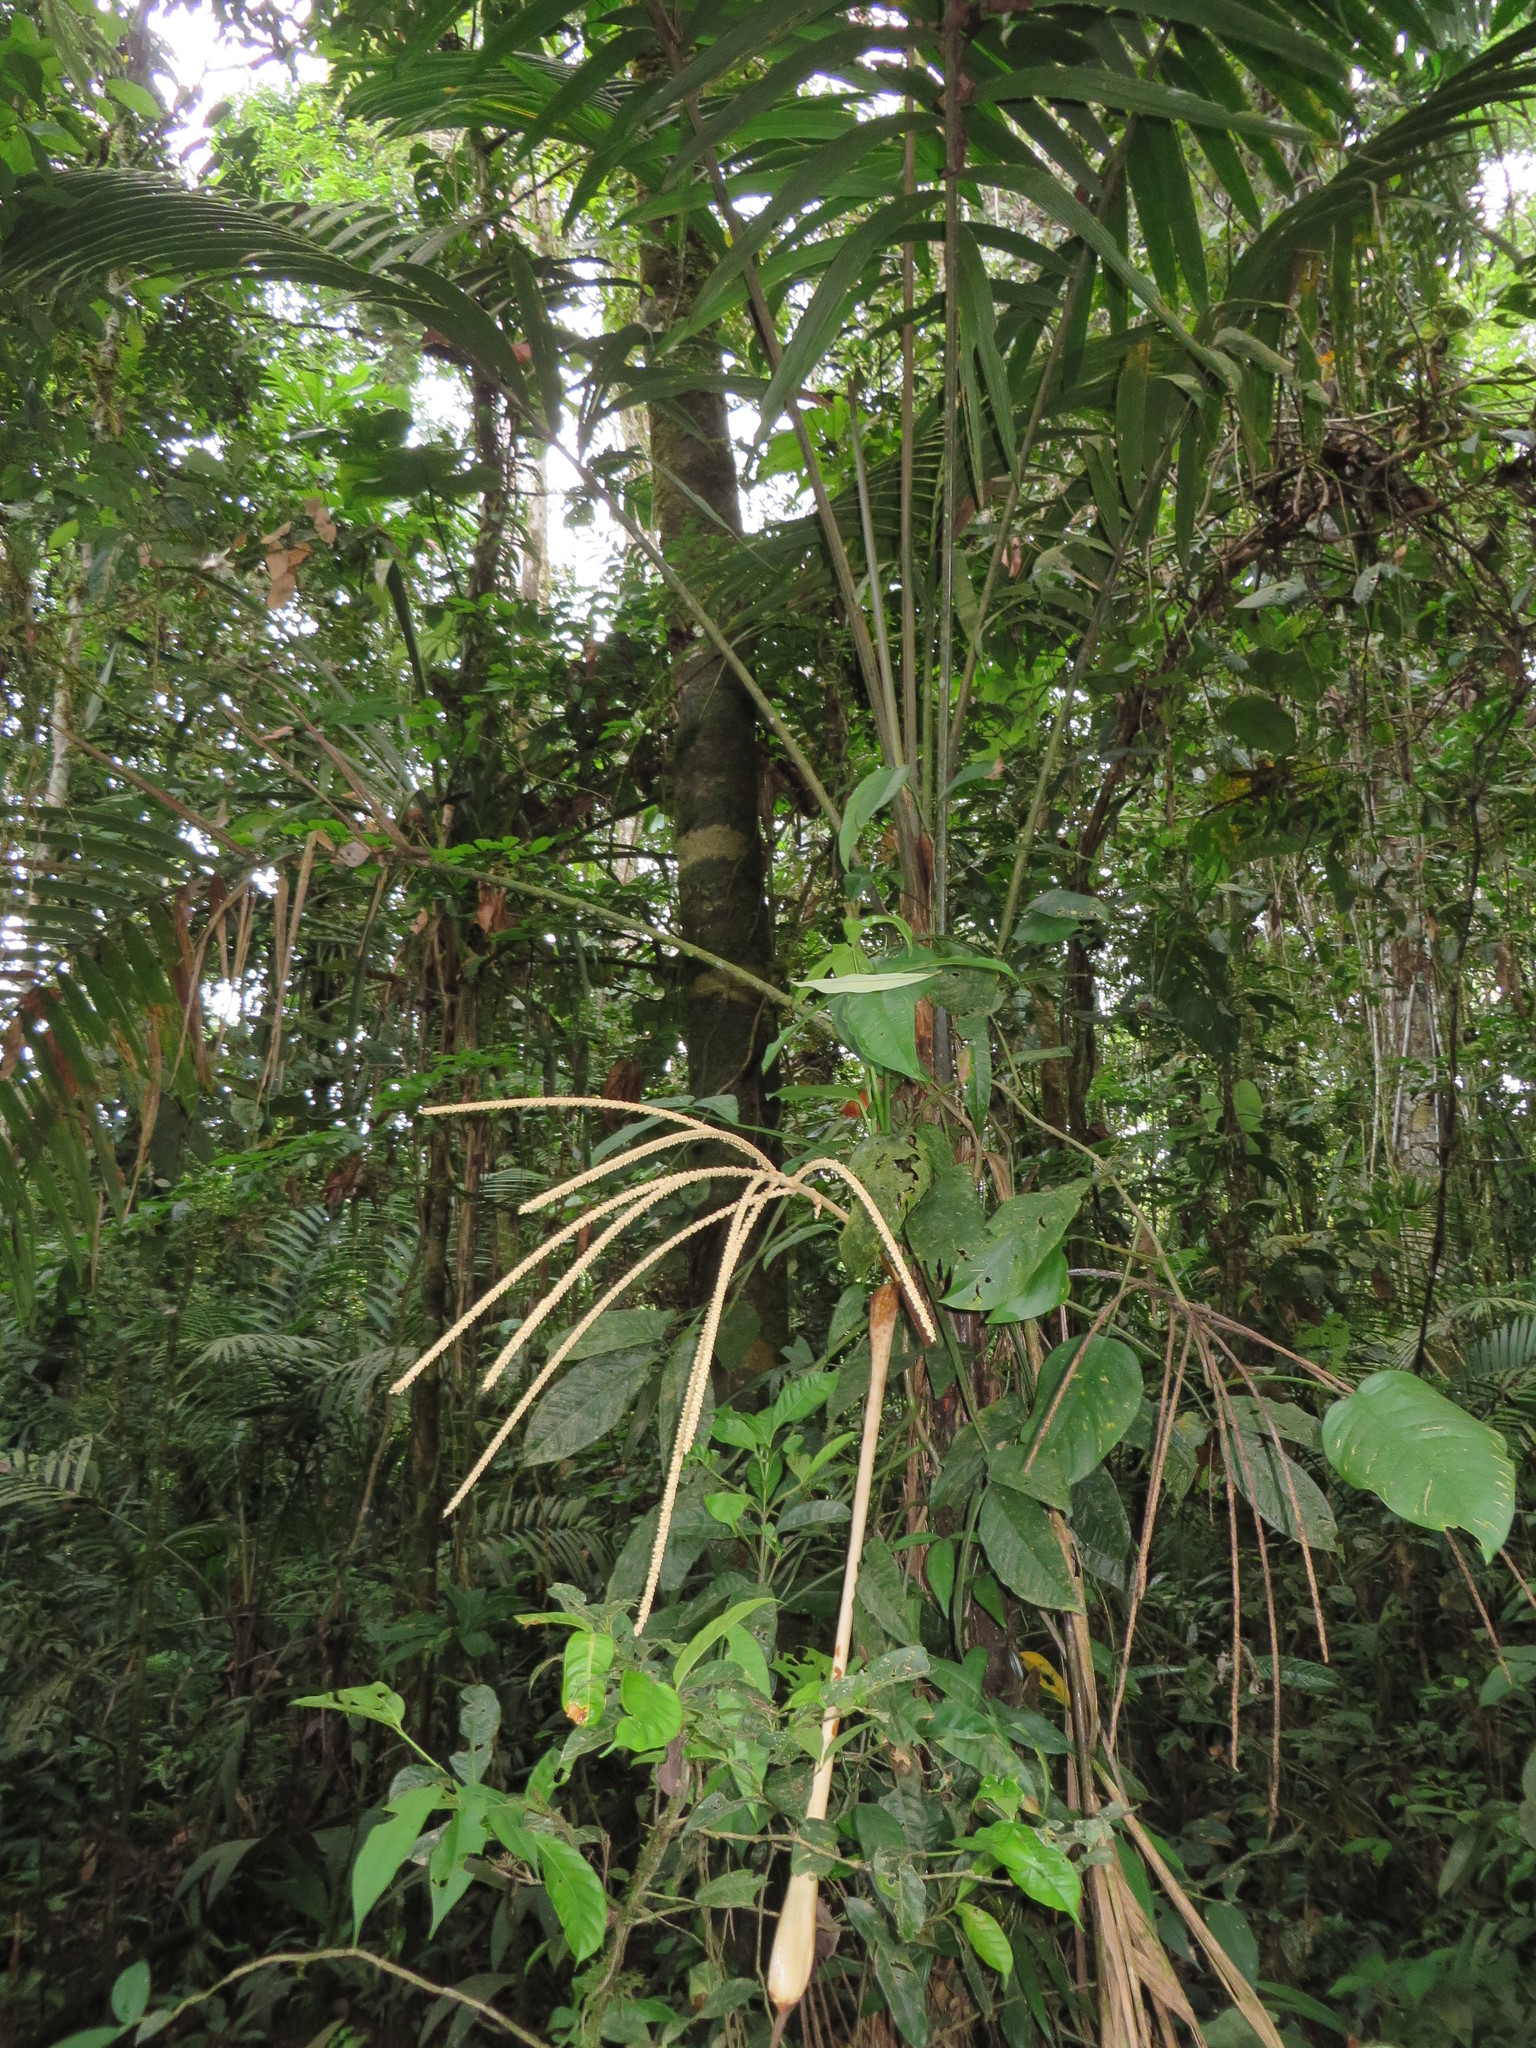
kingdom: Plantae
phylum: Tracheophyta
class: Liliopsida
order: Arecales
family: Arecaceae
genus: Prestoea
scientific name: Prestoea schultzeana
